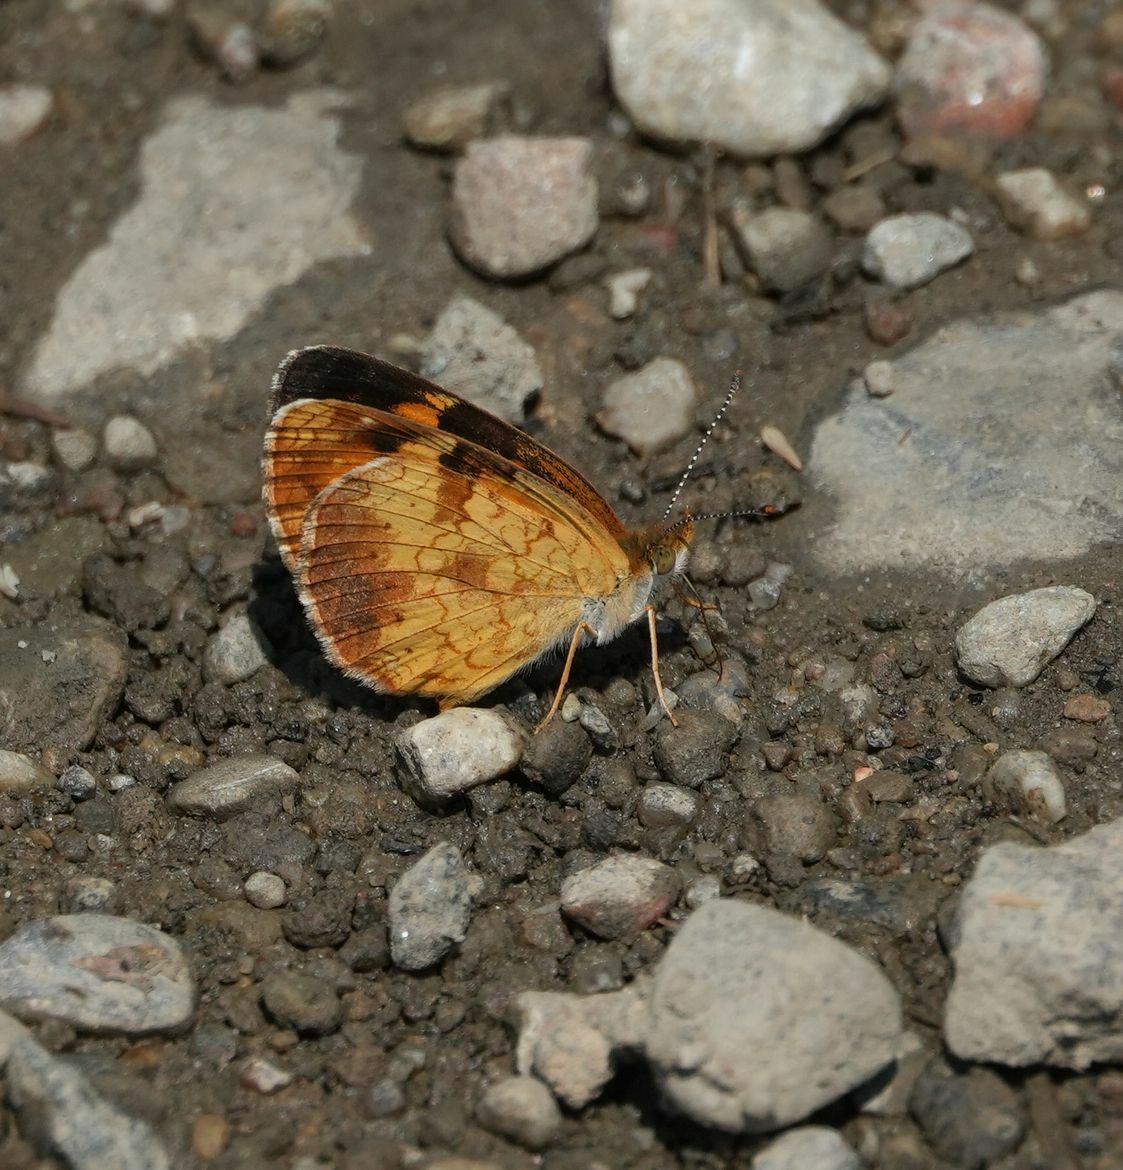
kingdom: Animalia
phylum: Arthropoda
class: Insecta
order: Lepidoptera
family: Nymphalidae
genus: Phyciodes
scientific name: Phyciodes tharos
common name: Pearl crescent
